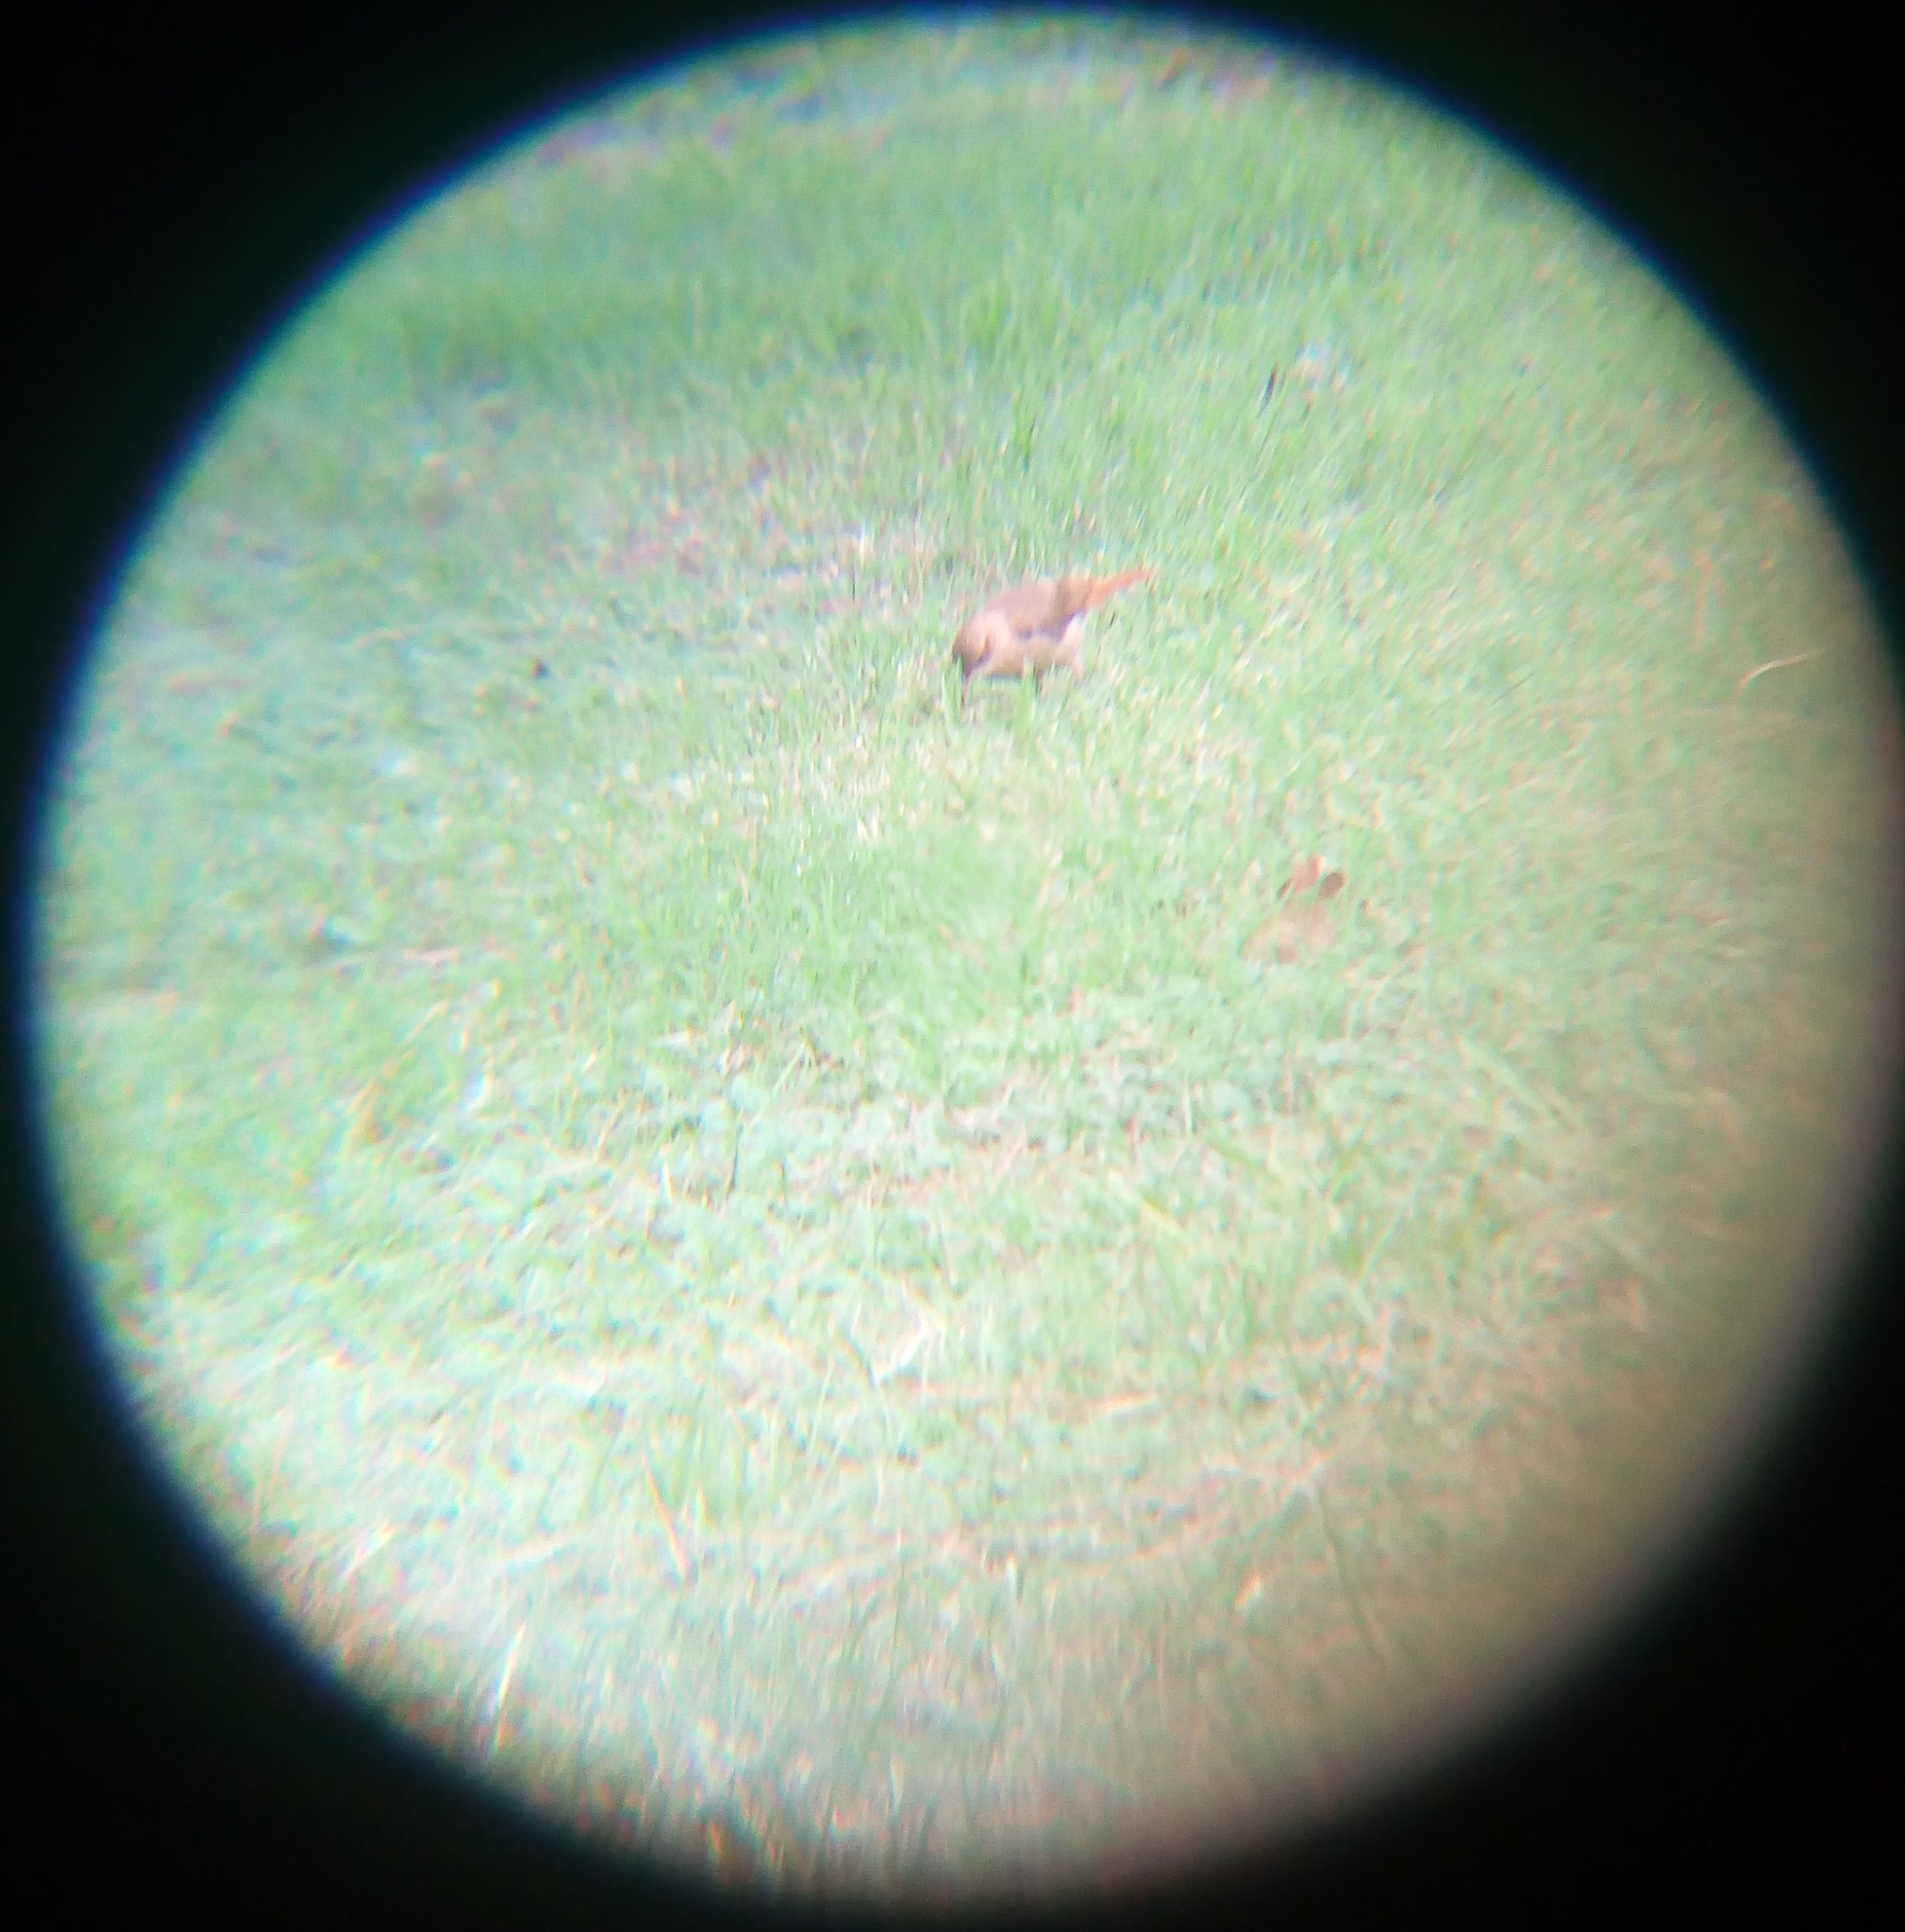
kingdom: Animalia
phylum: Chordata
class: Aves
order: Passeriformes
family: Furnariidae
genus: Furnarius
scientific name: Furnarius rufus
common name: Rufous hornero
